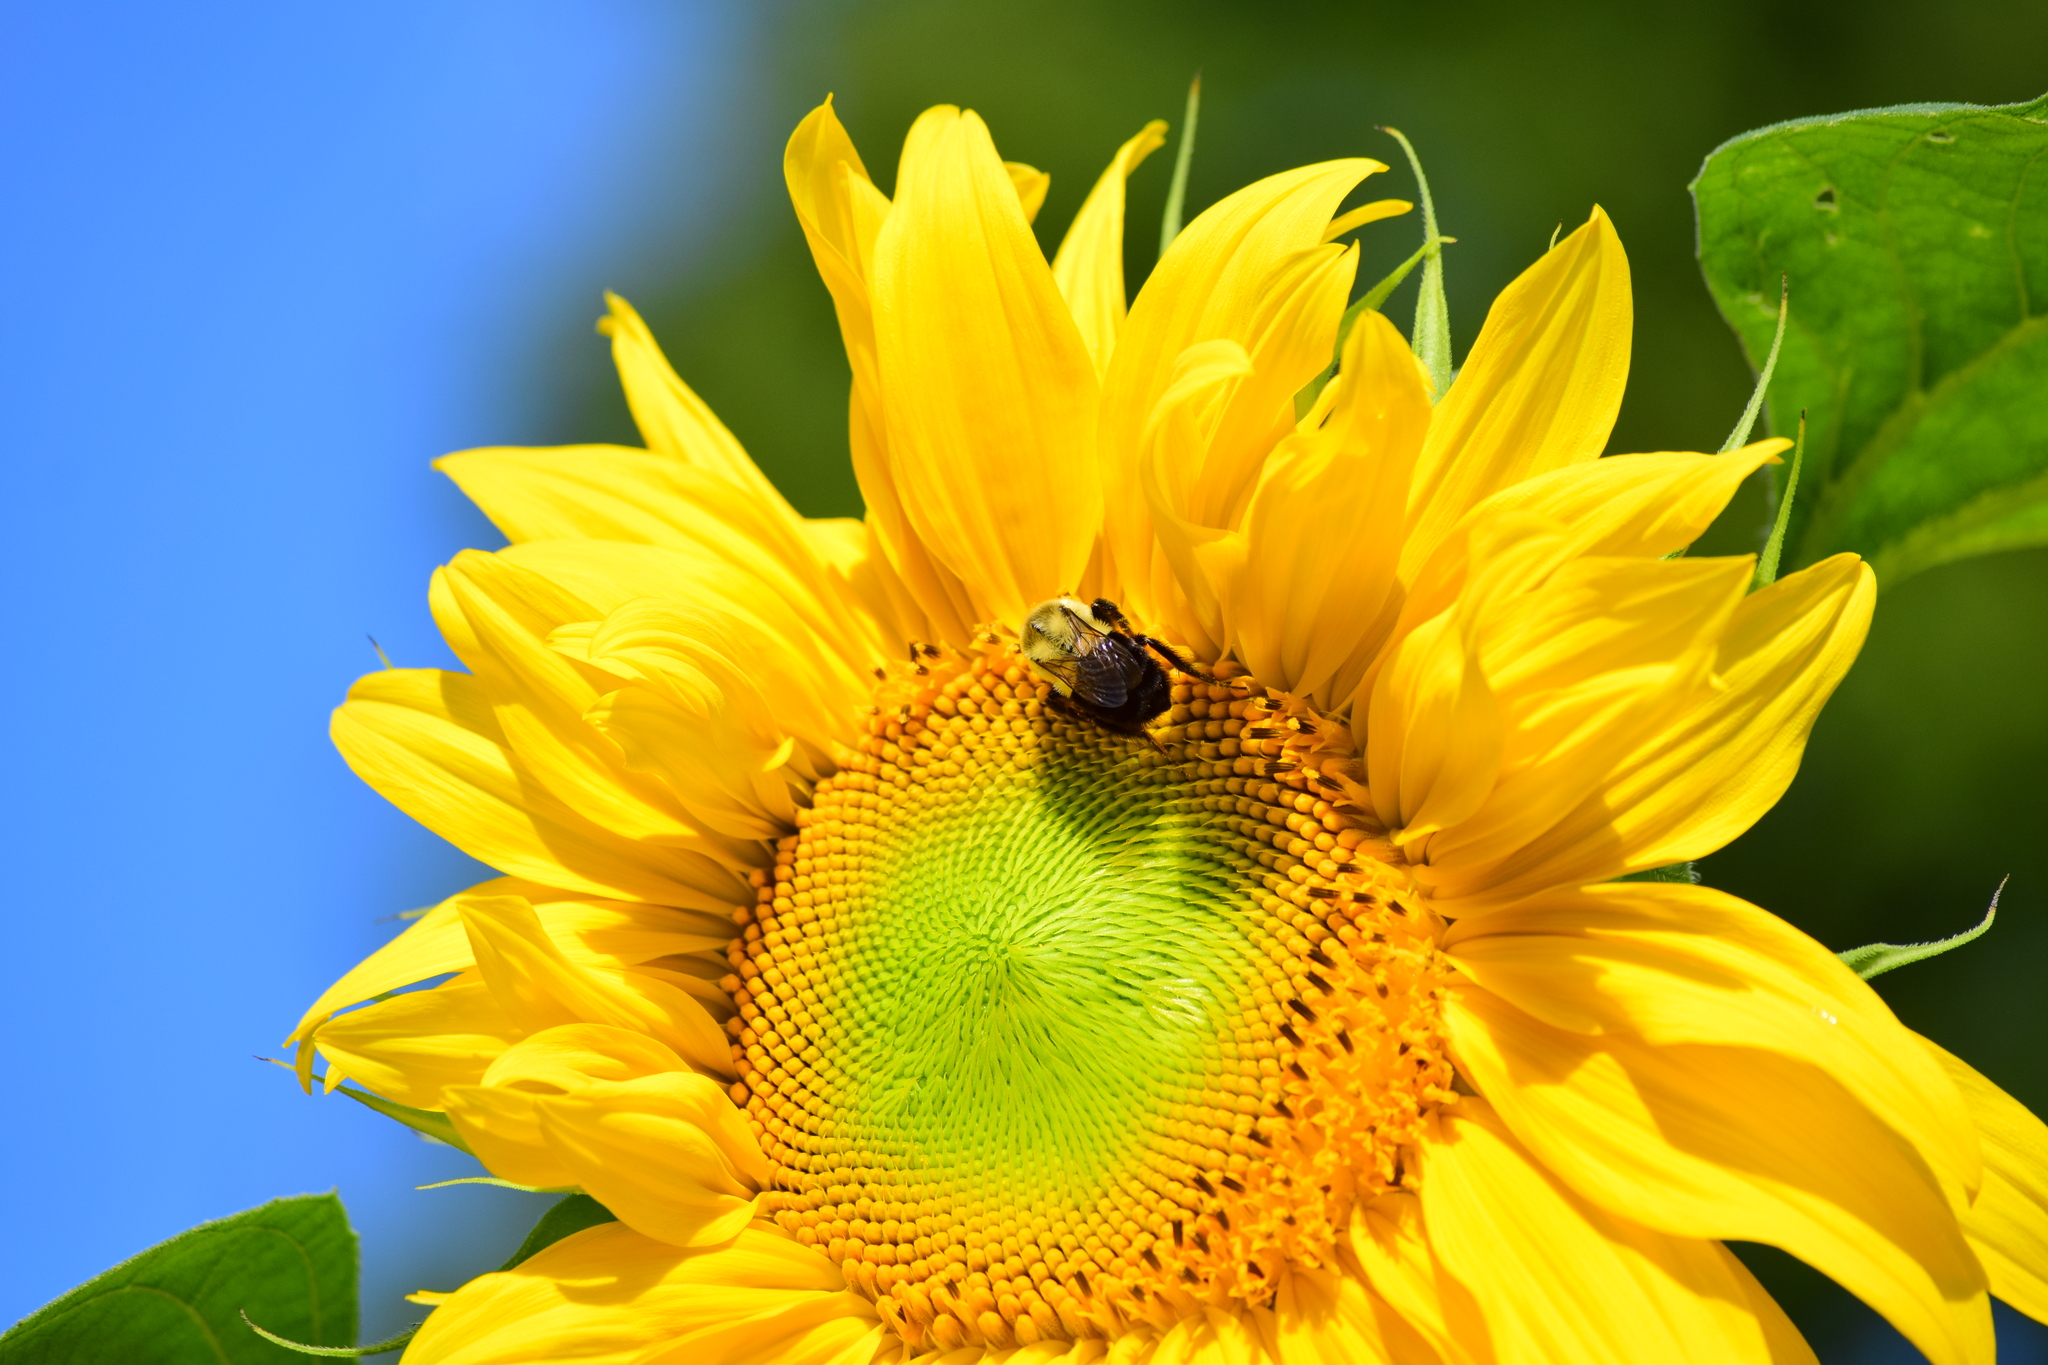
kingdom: Animalia
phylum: Arthropoda
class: Insecta
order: Hymenoptera
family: Apidae
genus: Bombus
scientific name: Bombus impatiens
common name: Common eastern bumble bee
